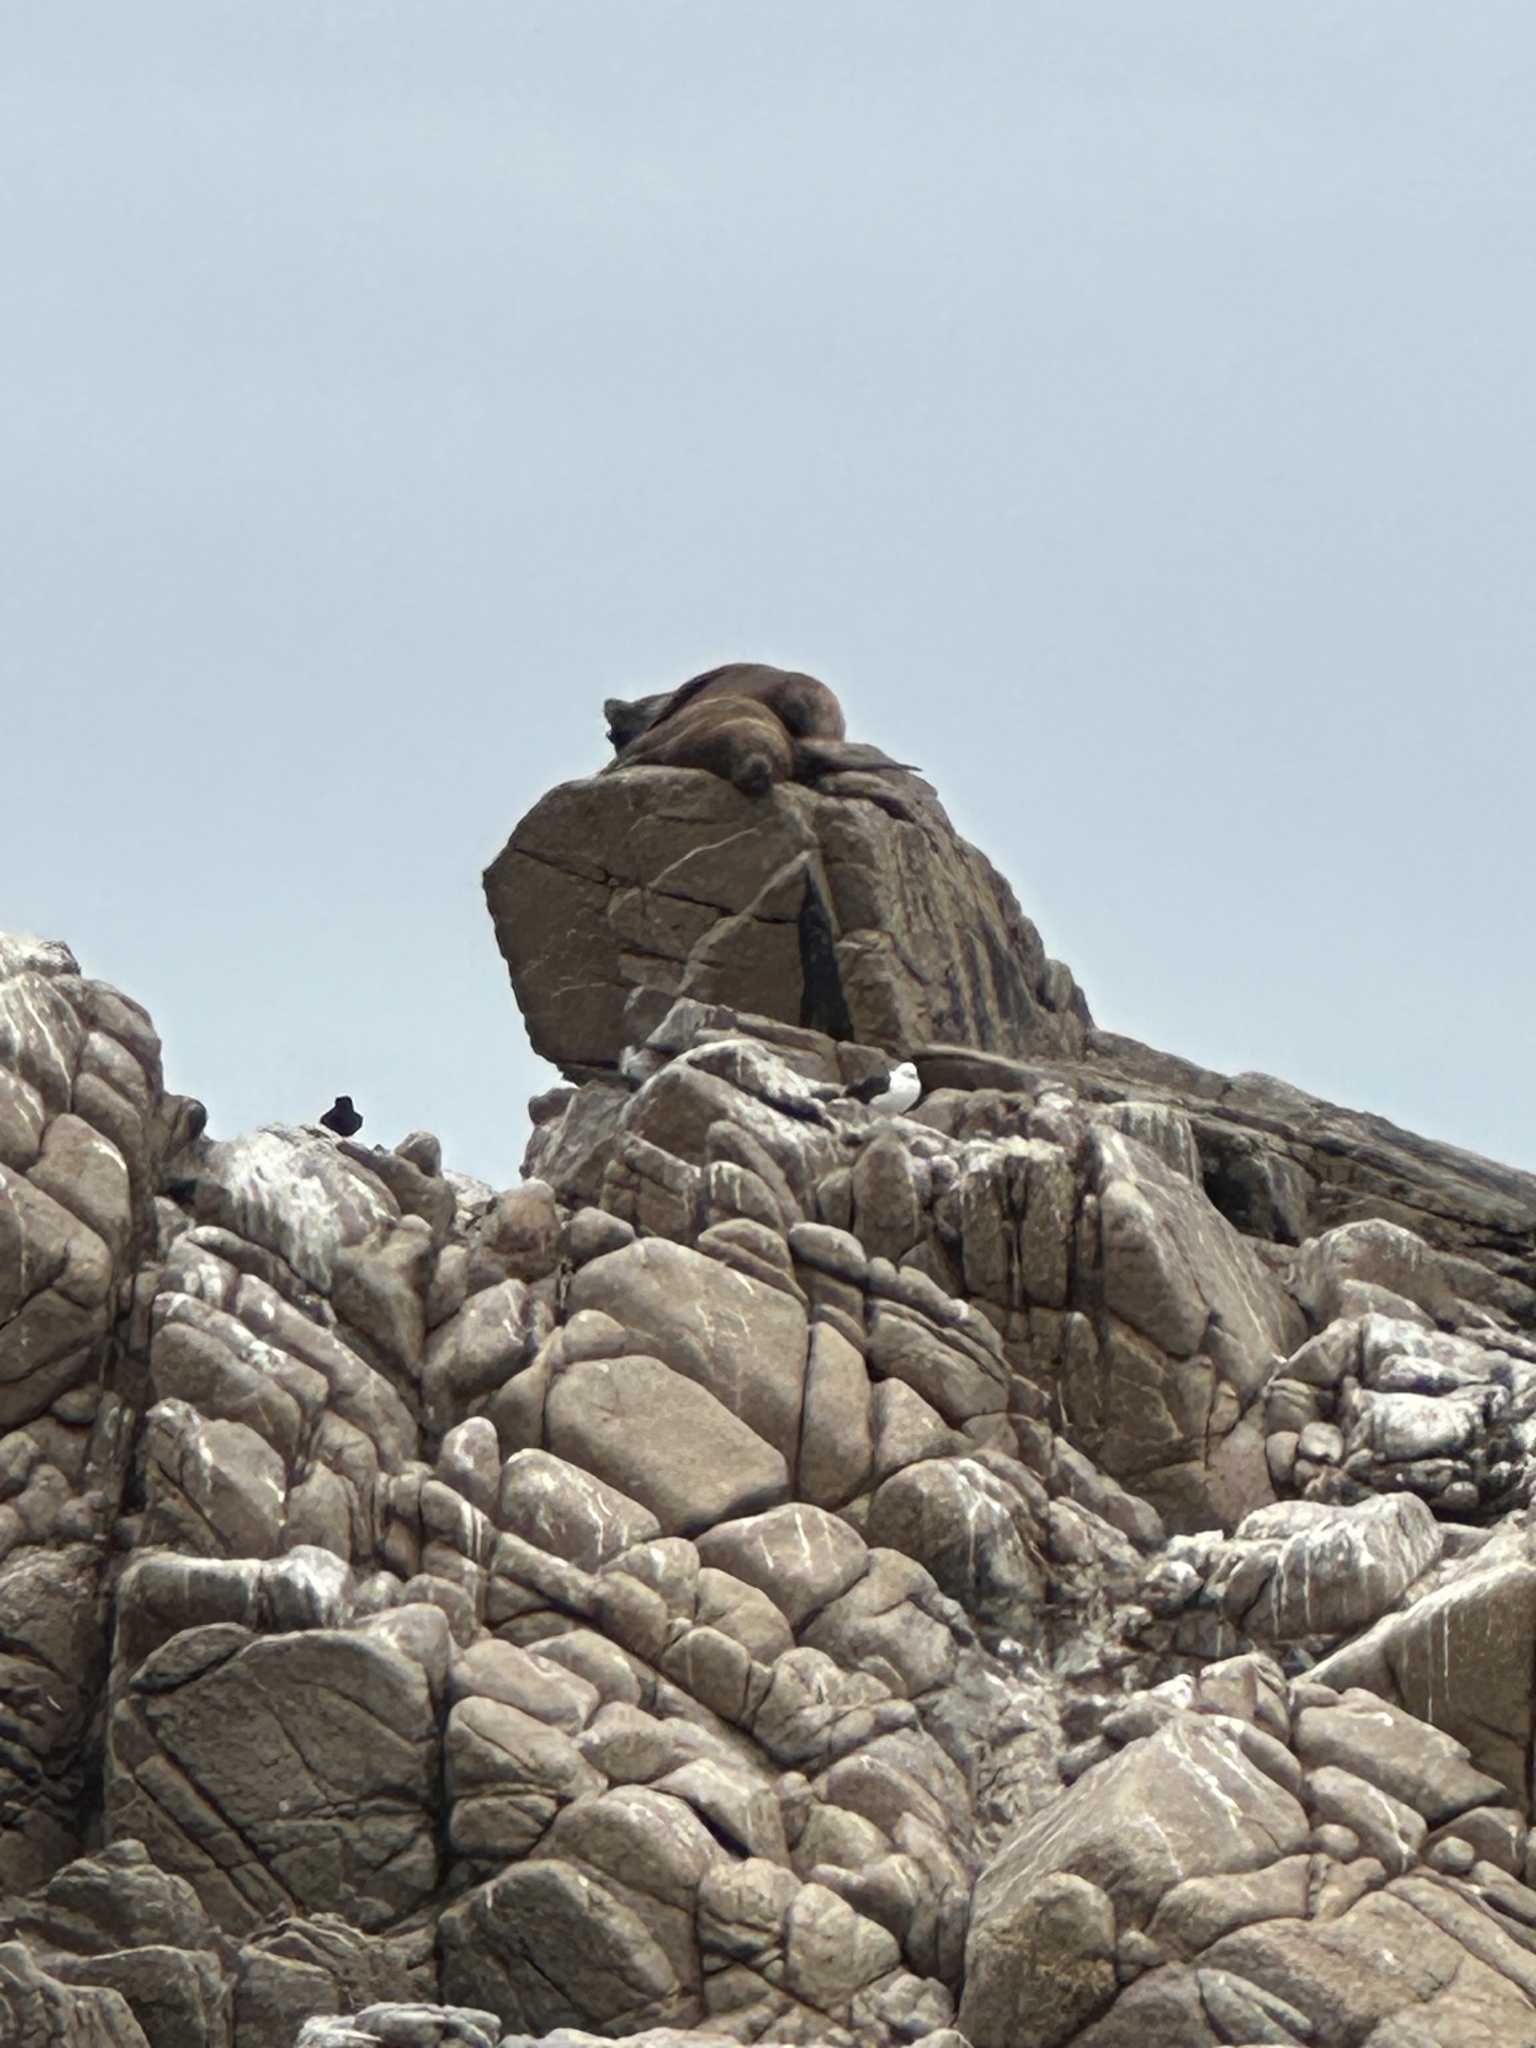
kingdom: Animalia
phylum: Chordata
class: Mammalia
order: Carnivora
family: Otariidae
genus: Otaria
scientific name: Otaria byronia
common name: South american sea lion
